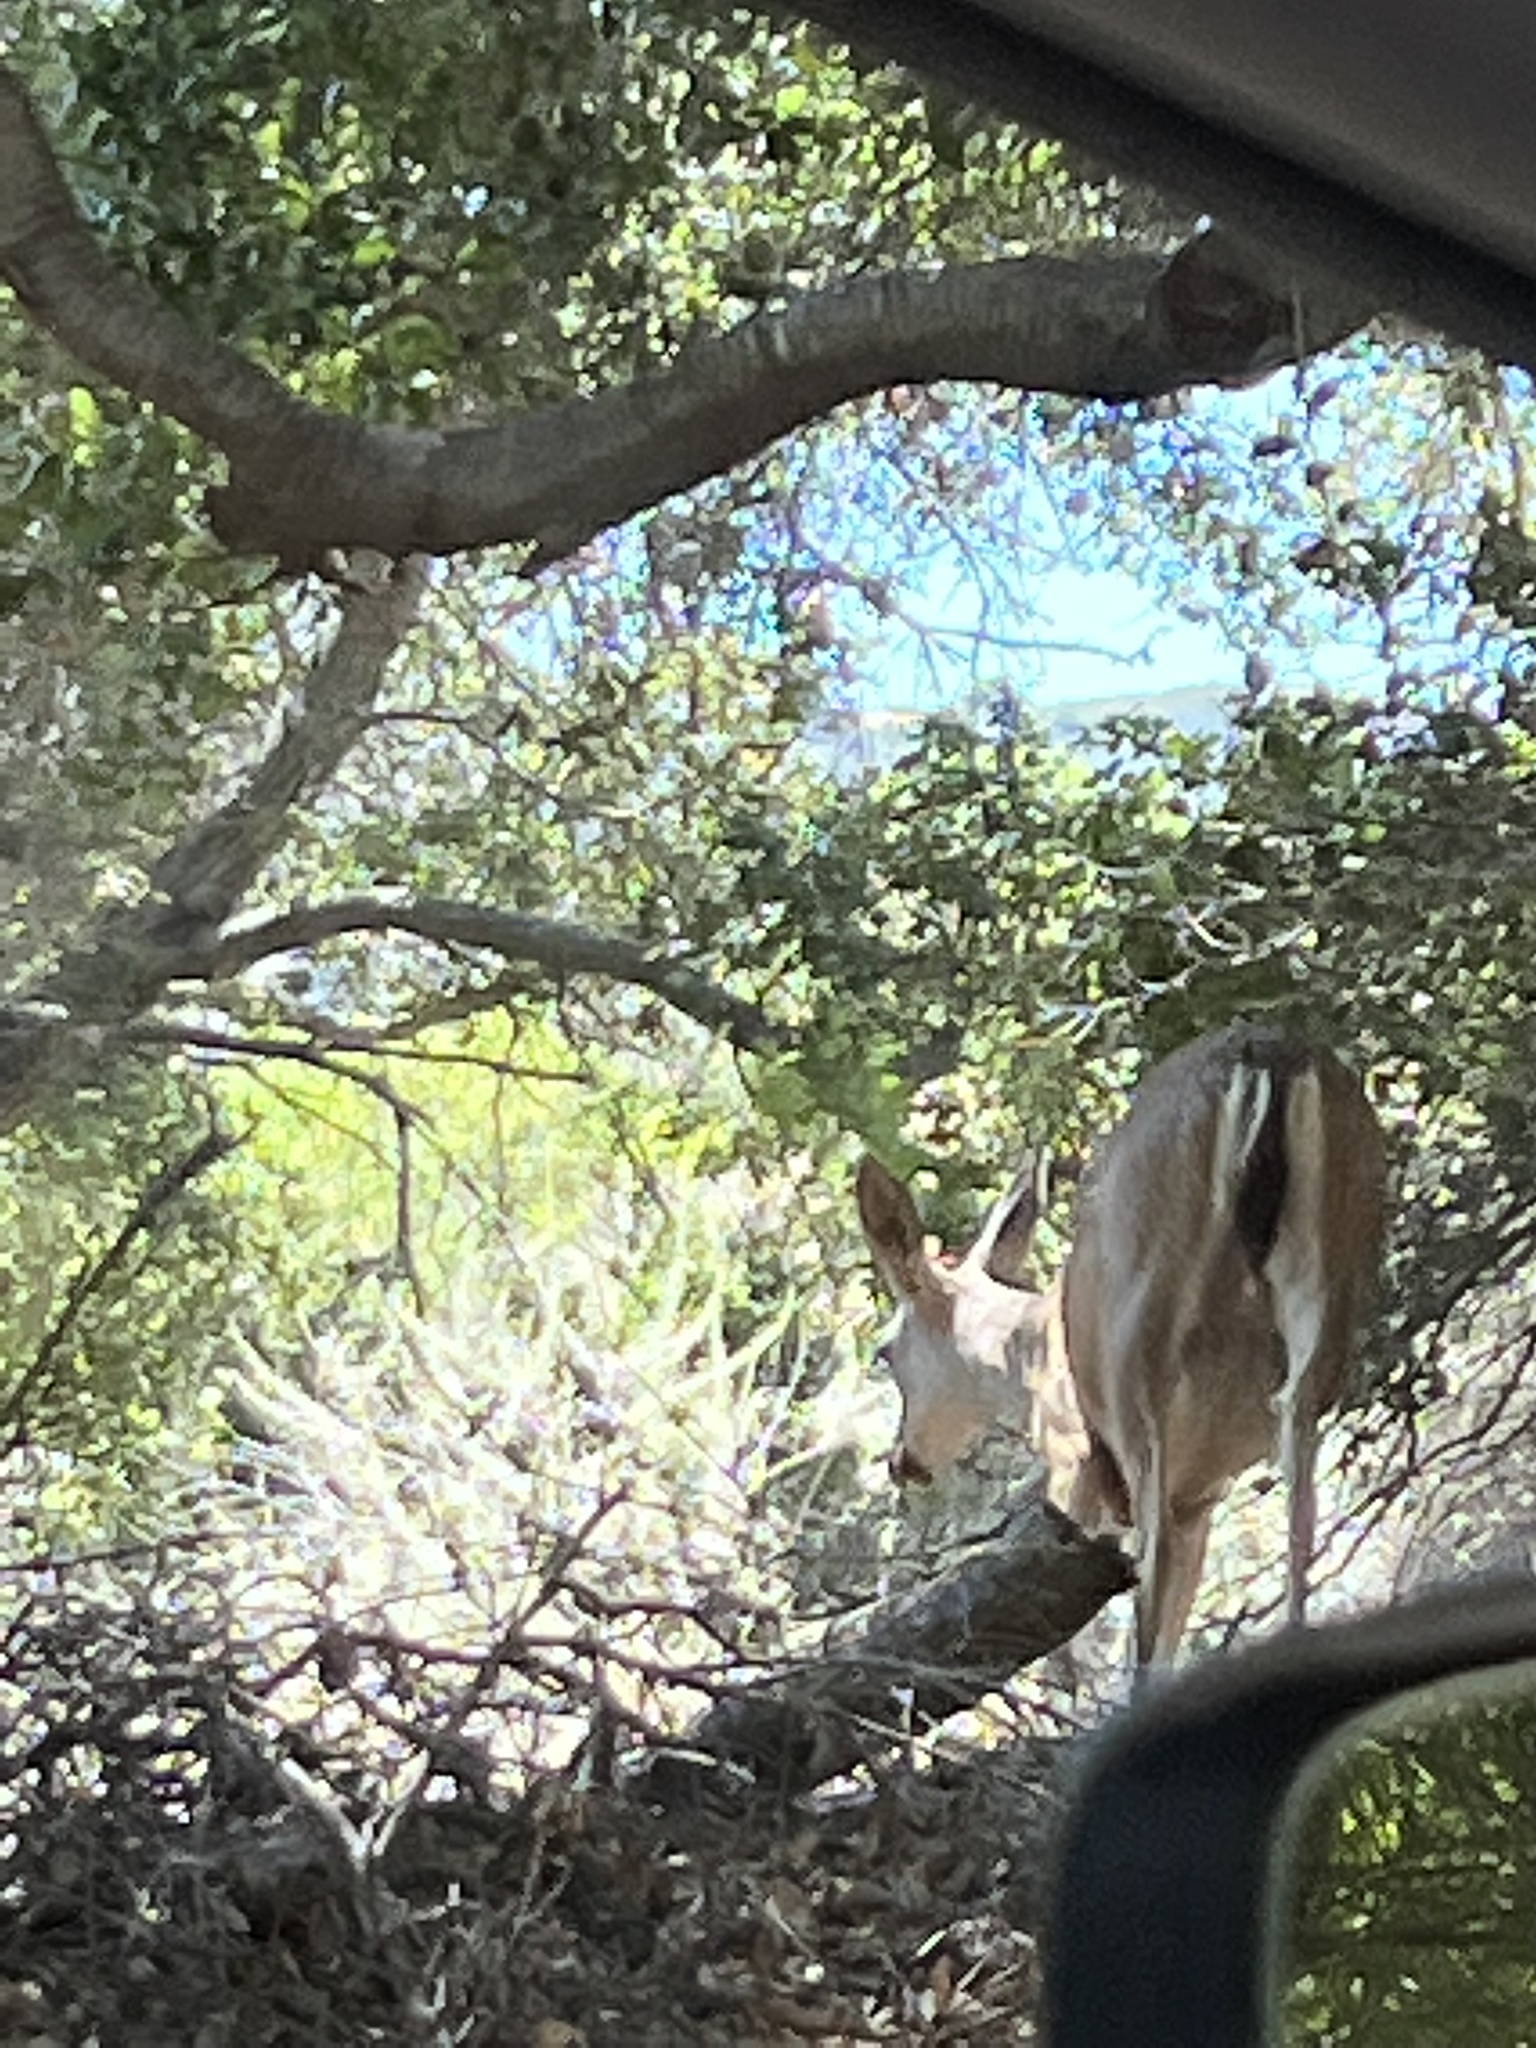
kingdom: Animalia
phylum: Chordata
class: Mammalia
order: Artiodactyla
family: Cervidae
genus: Odocoileus
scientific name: Odocoileus hemionus
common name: Mule deer
